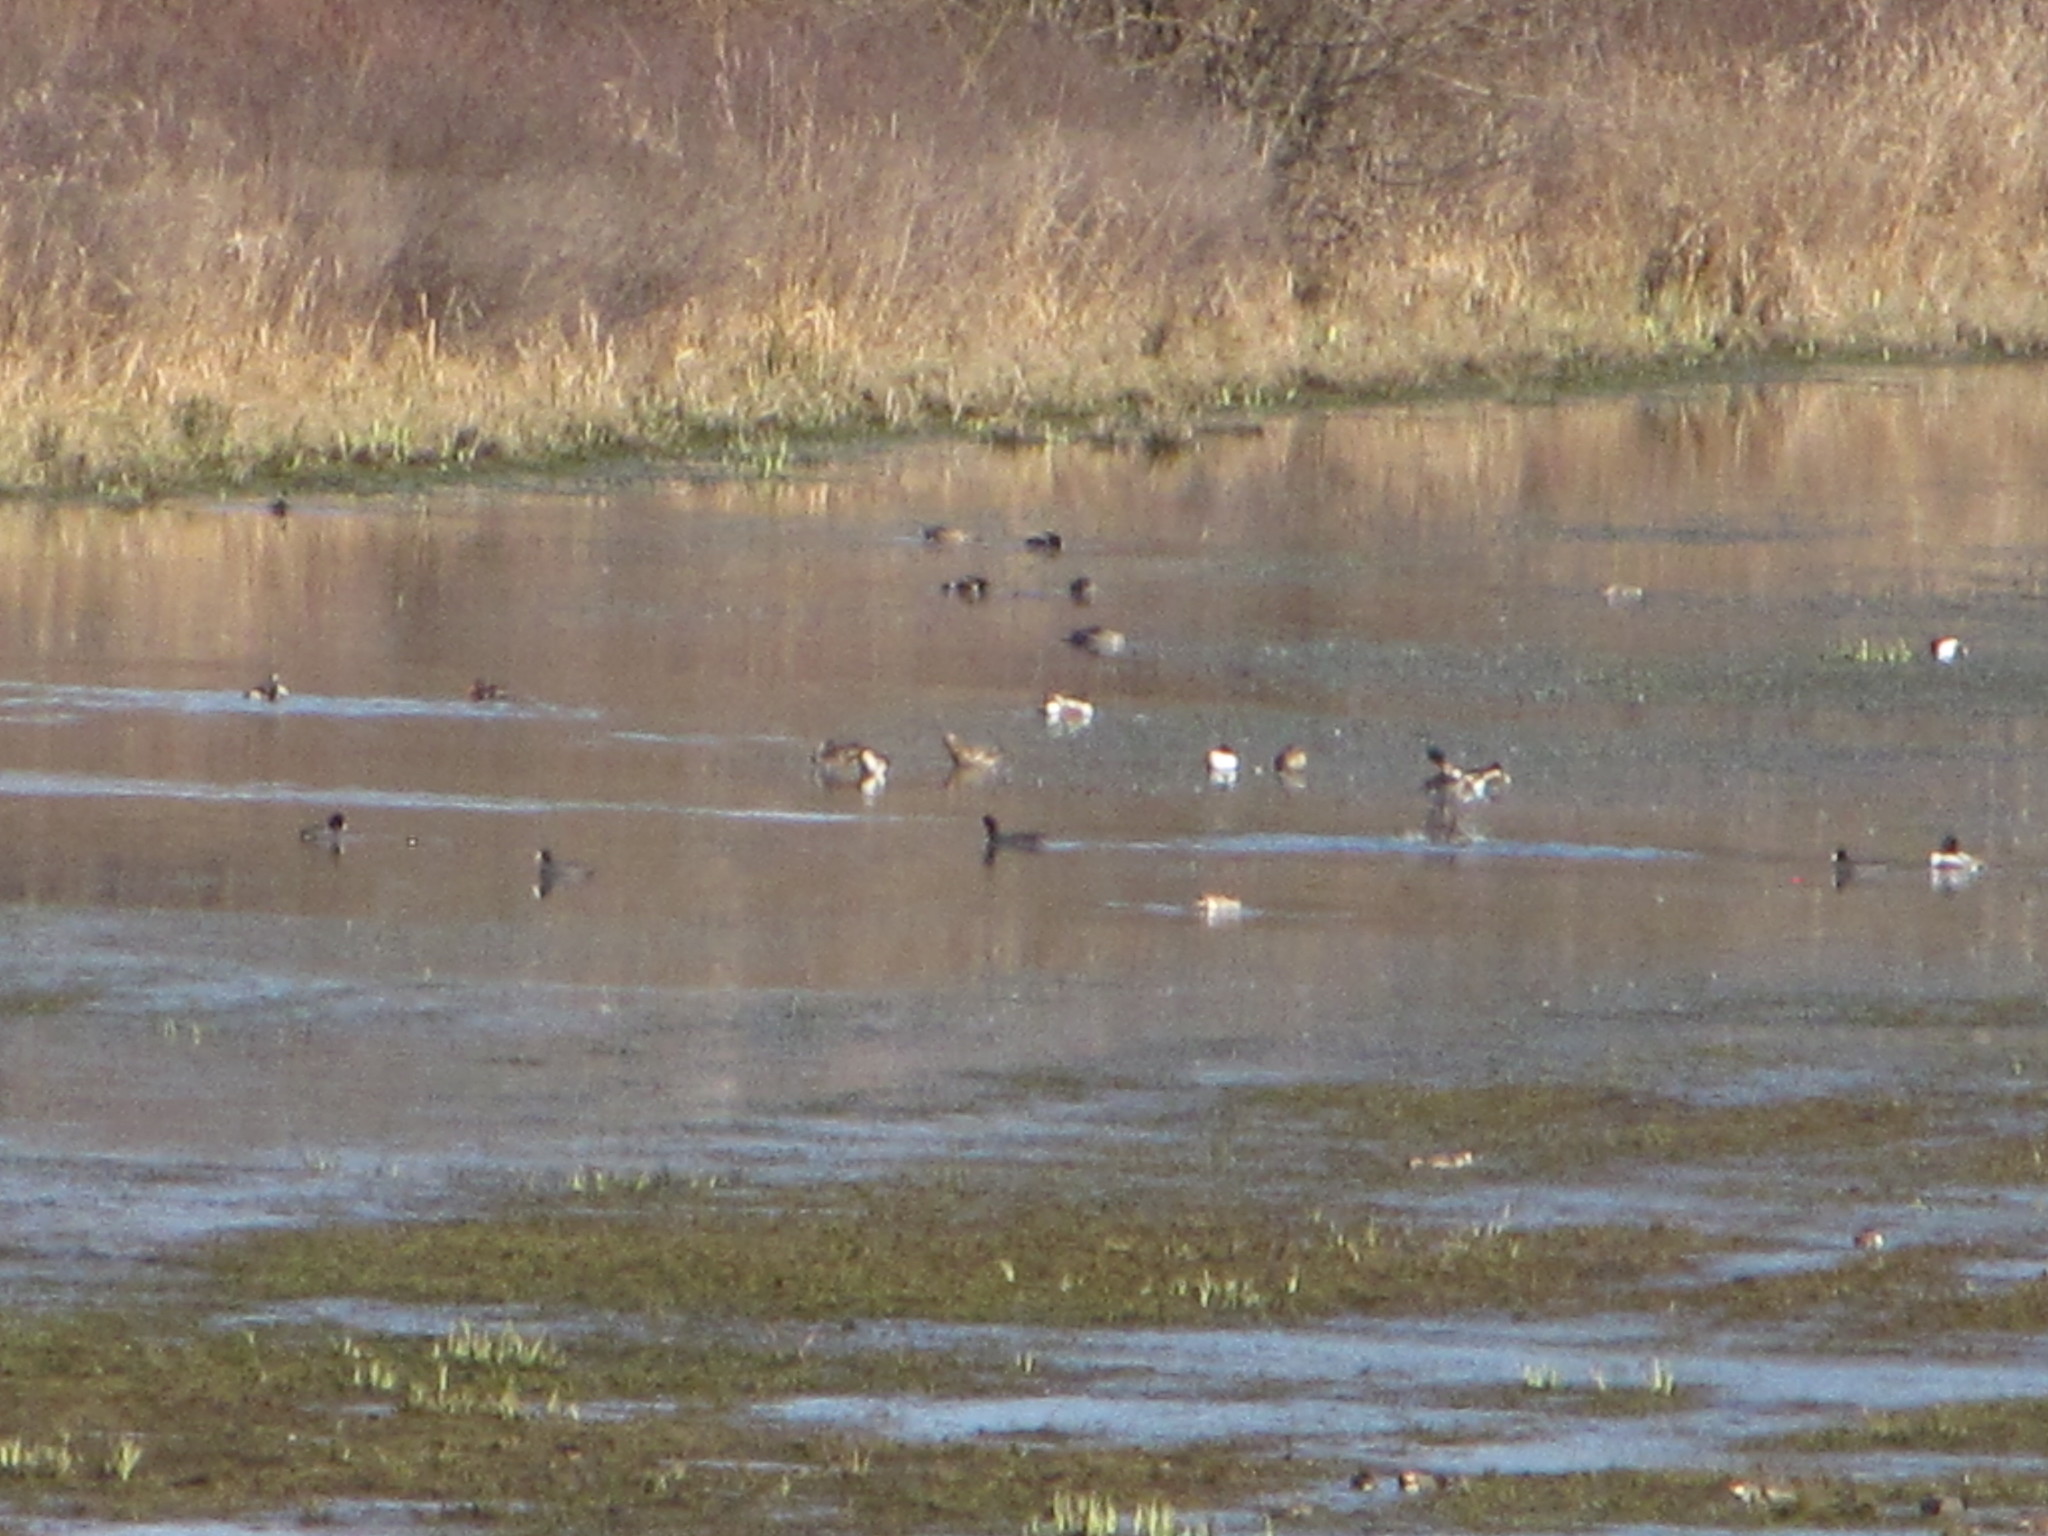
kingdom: Animalia
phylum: Chordata
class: Aves
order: Gruiformes
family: Rallidae
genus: Fulica
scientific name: Fulica americana
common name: American coot
